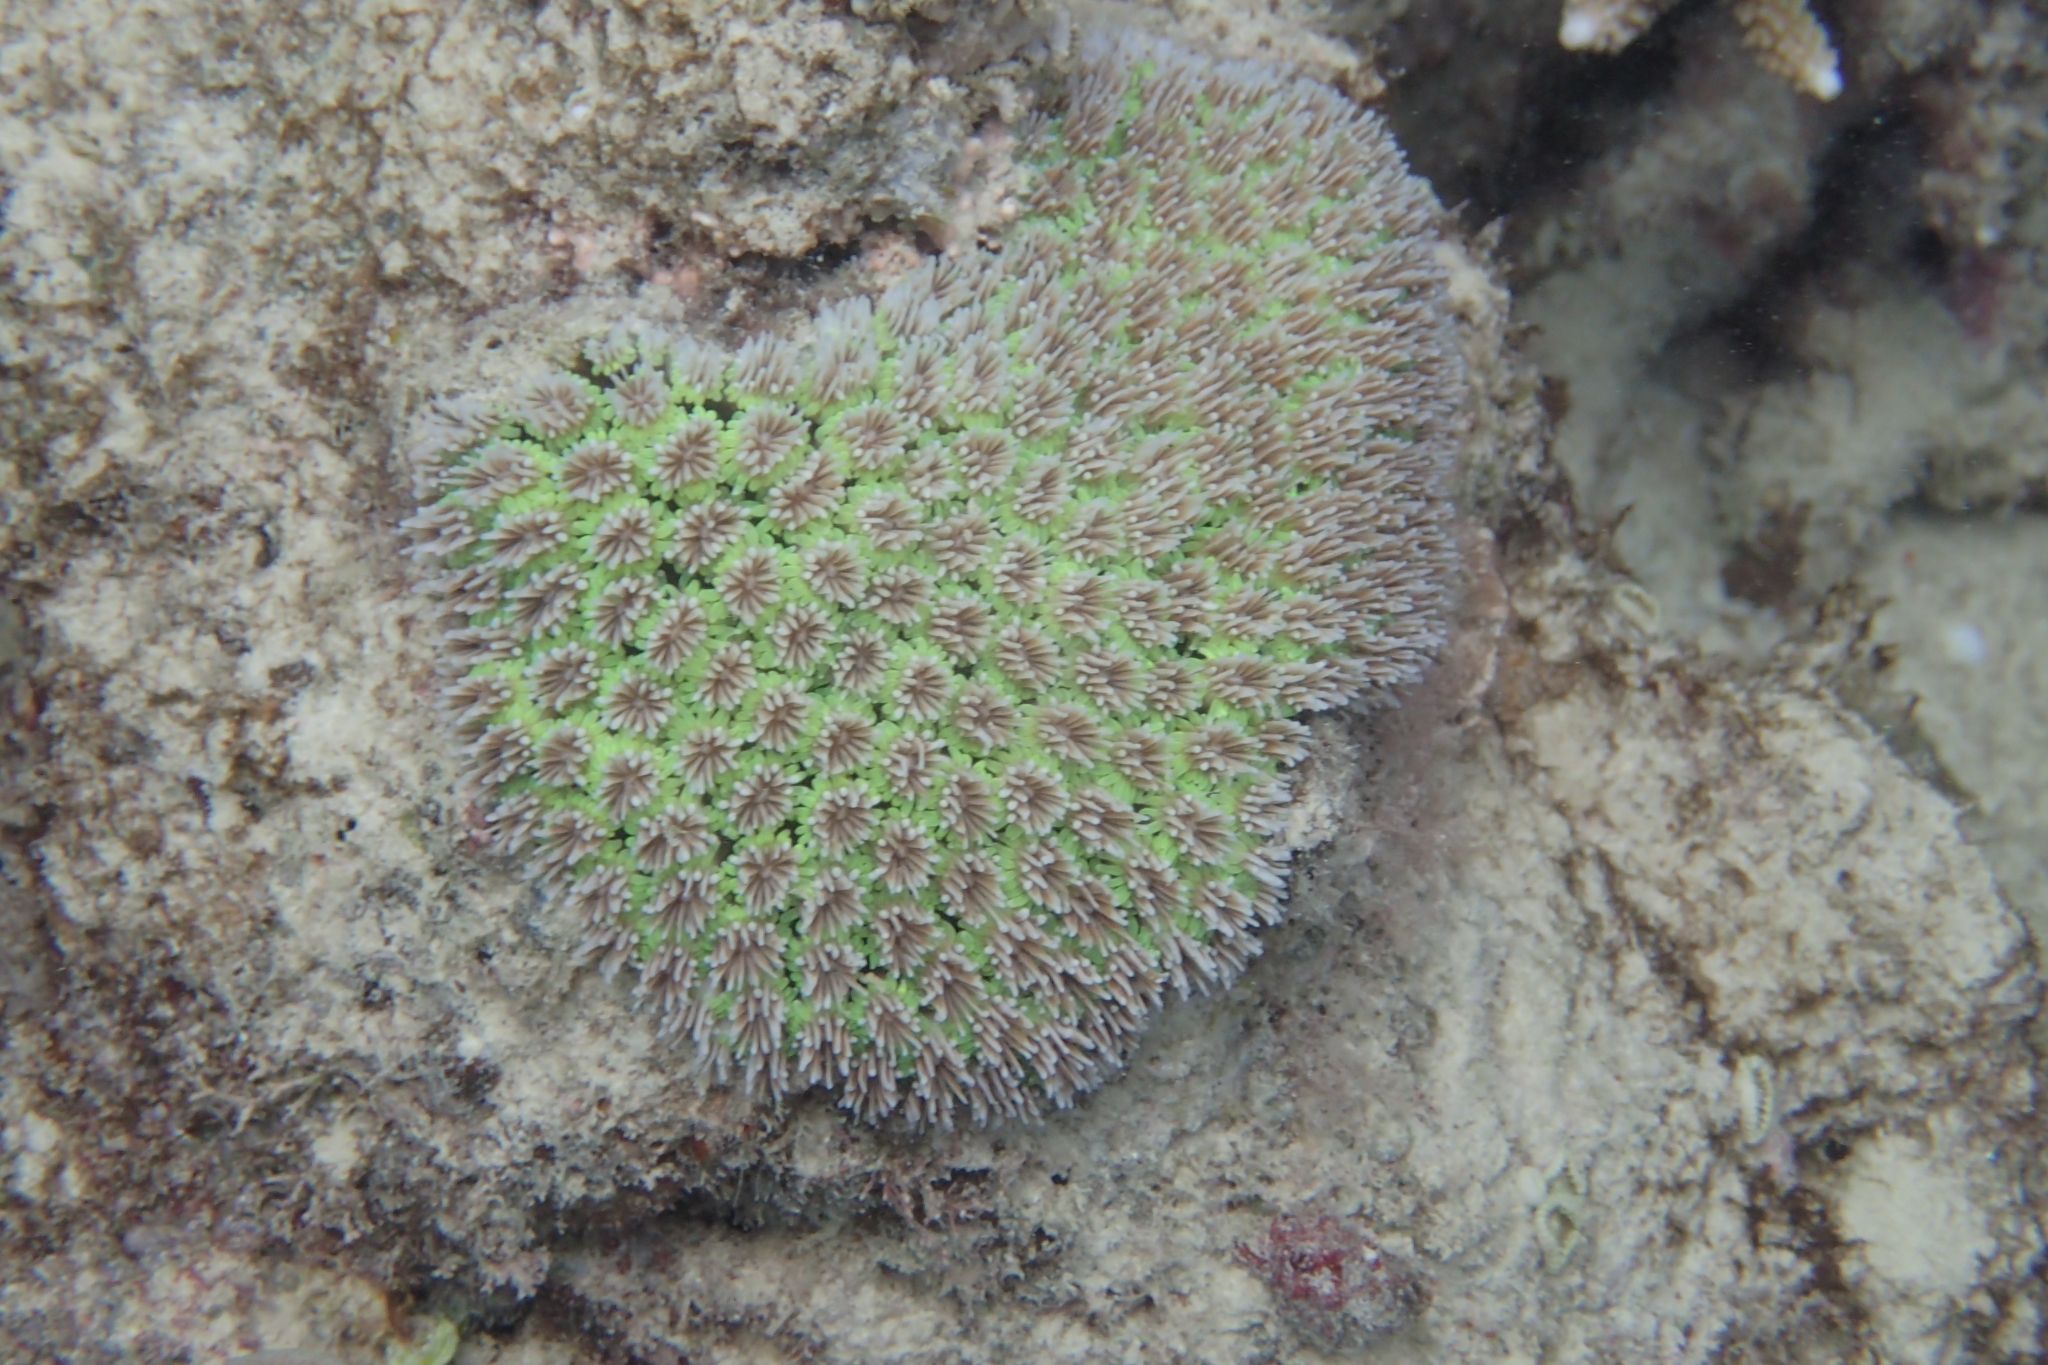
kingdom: Animalia
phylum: Cnidaria
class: Anthozoa
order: Scleractinia
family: Euphylliidae
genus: Galaxea
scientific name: Galaxea fascicularis
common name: Octopus coral
